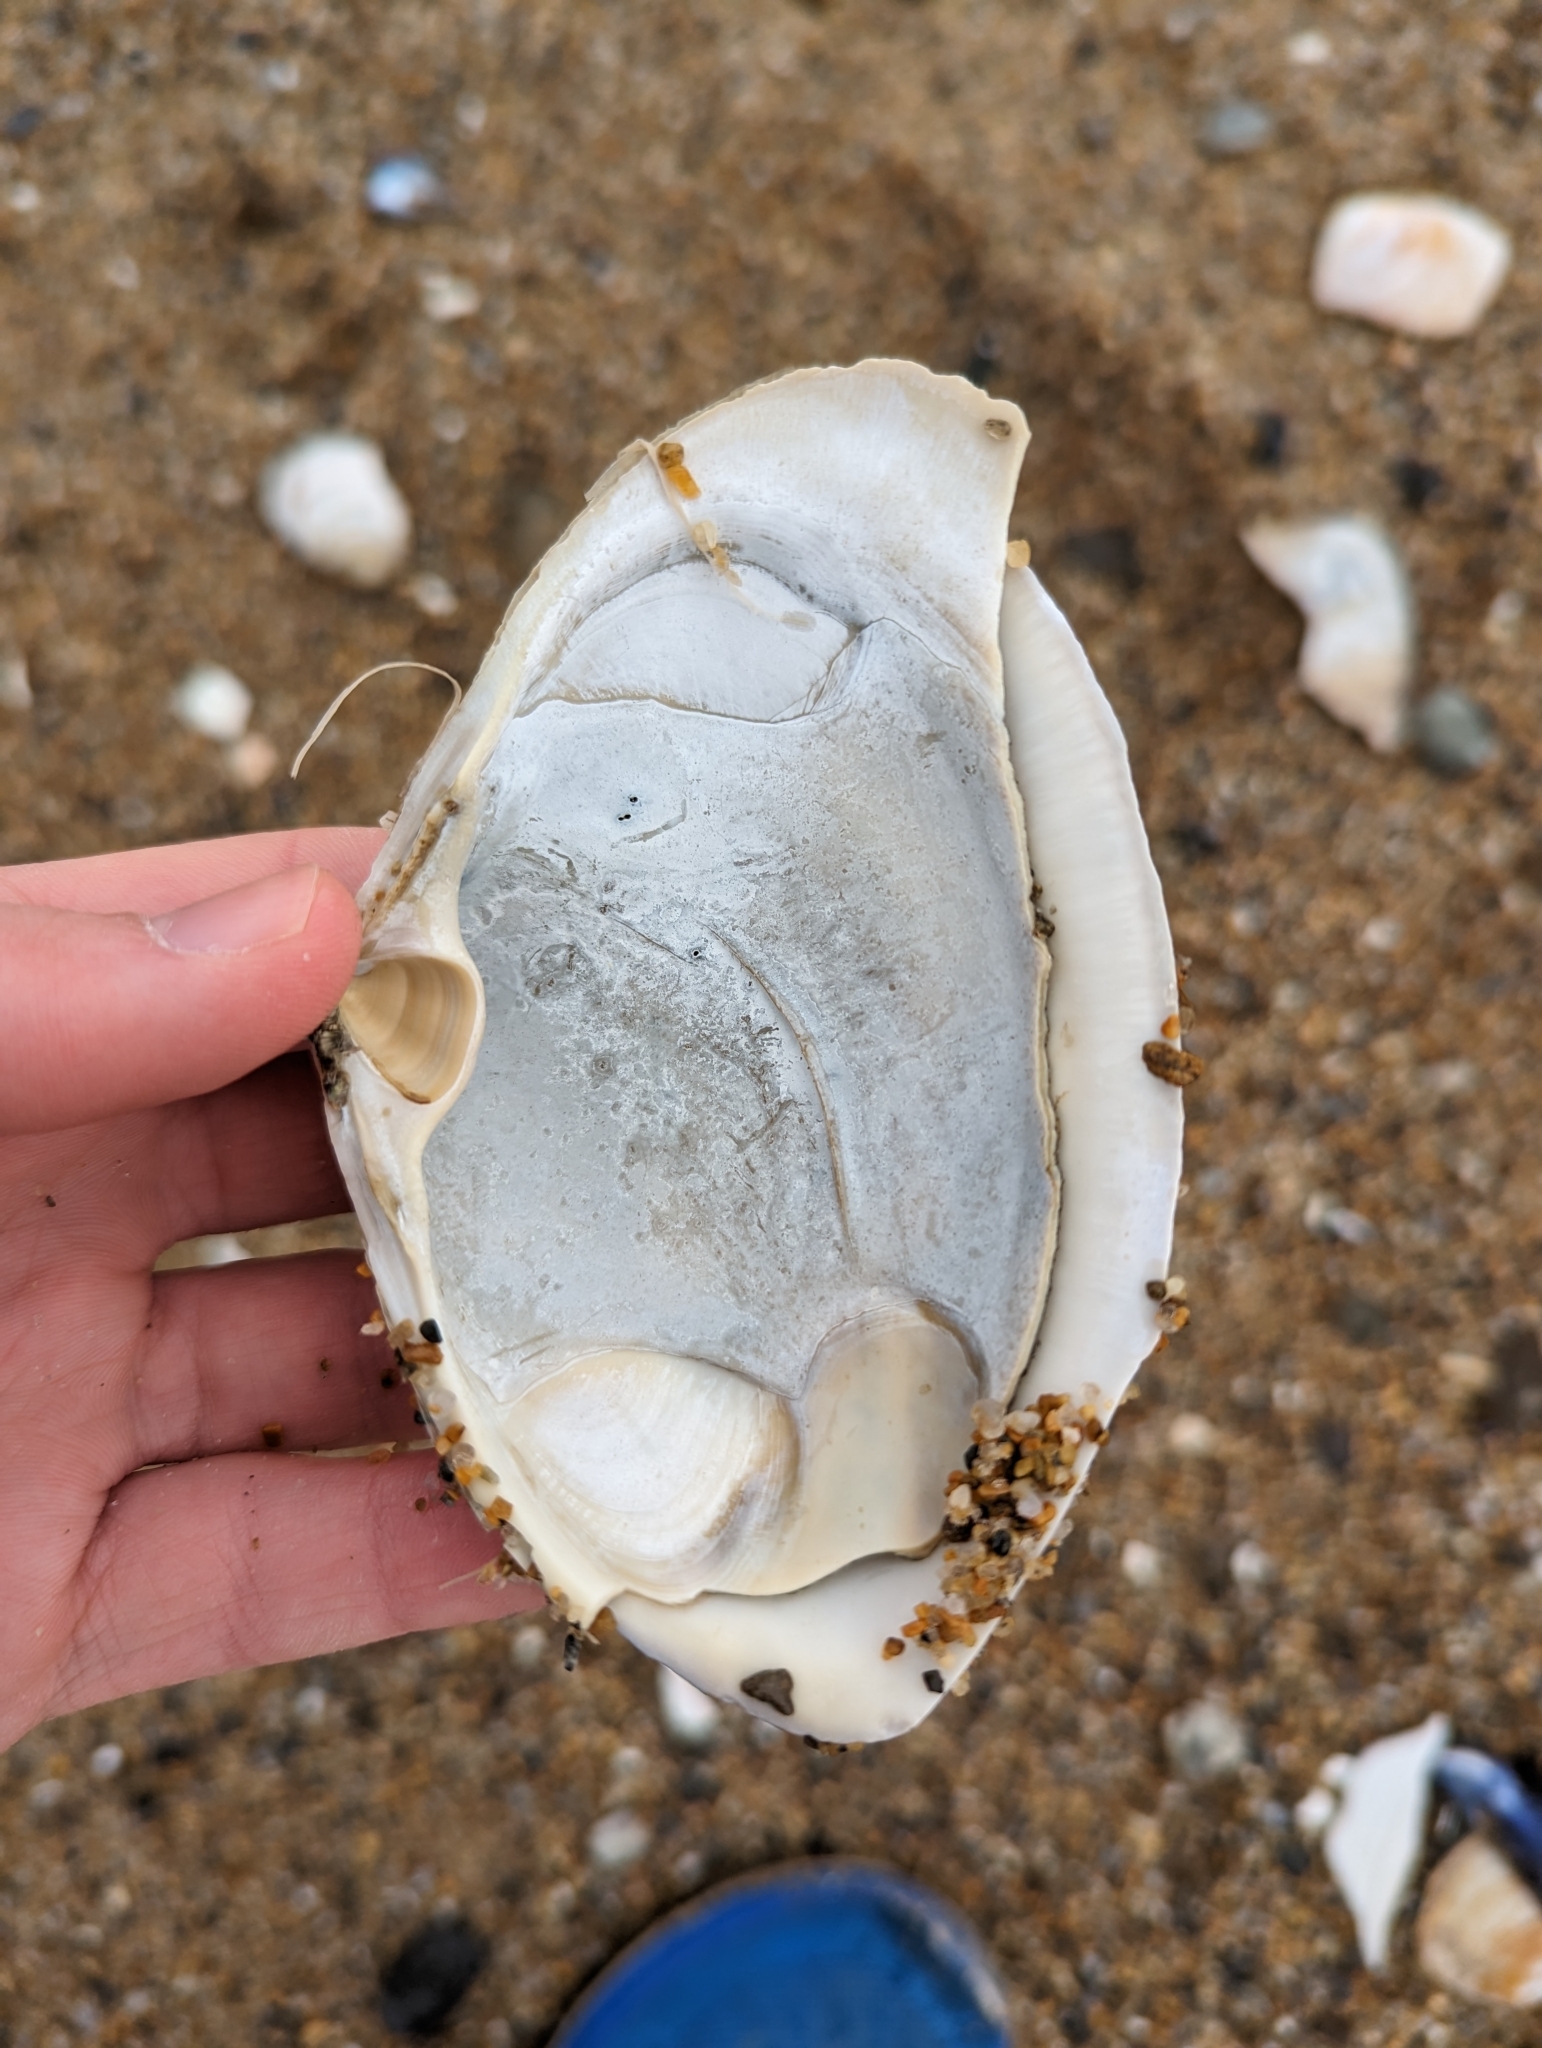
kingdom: Animalia
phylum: Mollusca
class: Bivalvia
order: Venerida
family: Mactridae
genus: Spisula
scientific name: Spisula solidissima
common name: Atlantic surf clam
